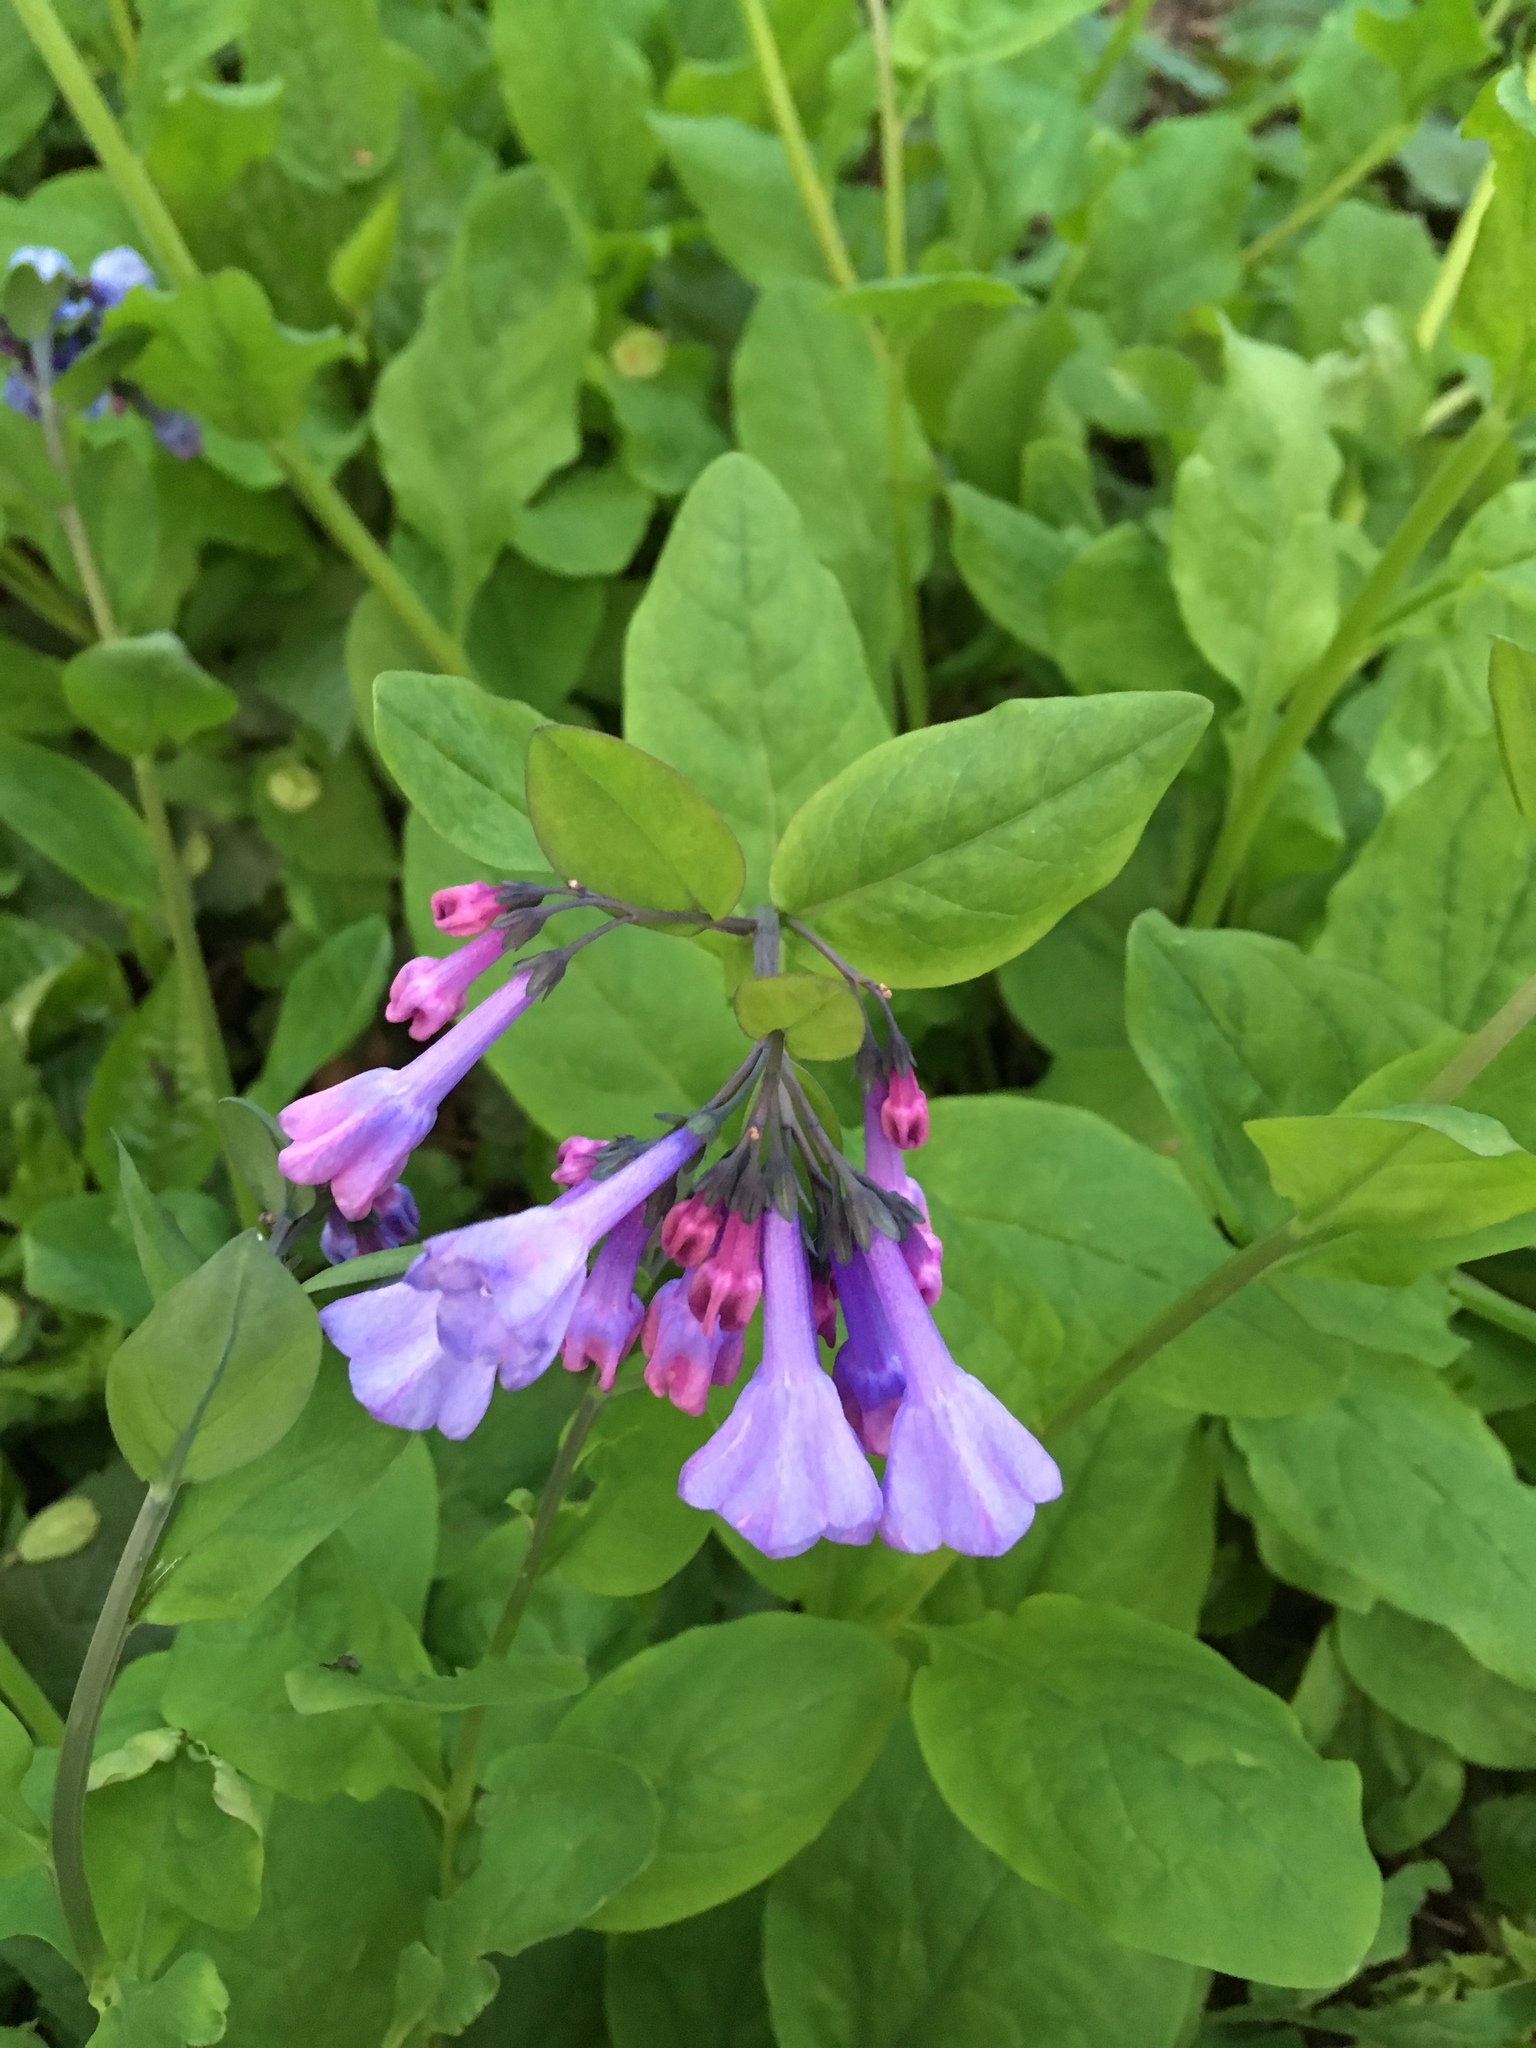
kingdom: Plantae
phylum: Tracheophyta
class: Magnoliopsida
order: Boraginales
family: Boraginaceae
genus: Mertensia
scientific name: Mertensia virginica
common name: Virginia bluebells
